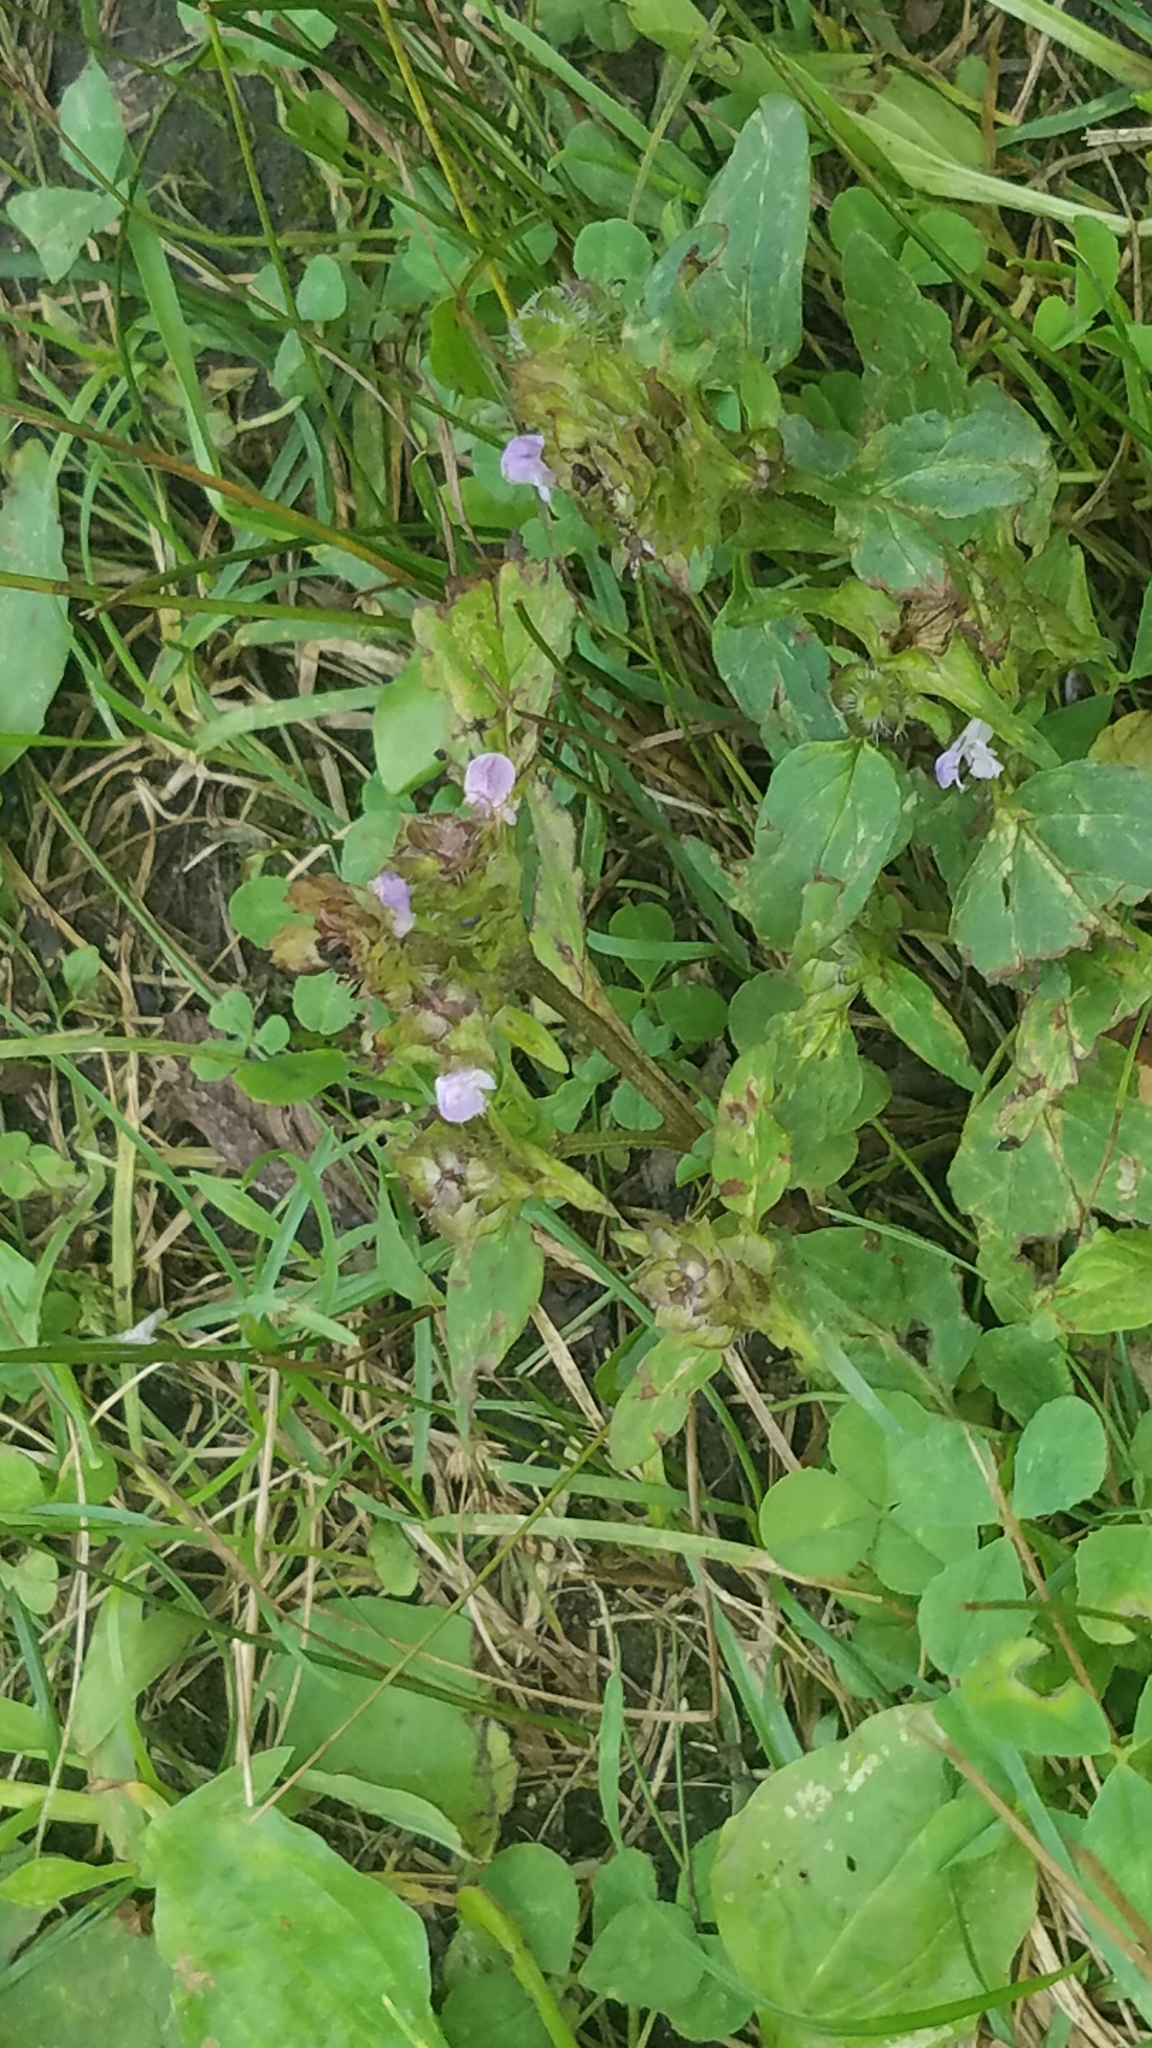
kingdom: Plantae
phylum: Tracheophyta
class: Magnoliopsida
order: Lamiales
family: Lamiaceae
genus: Prunella
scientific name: Prunella vulgaris
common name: Heal-all
